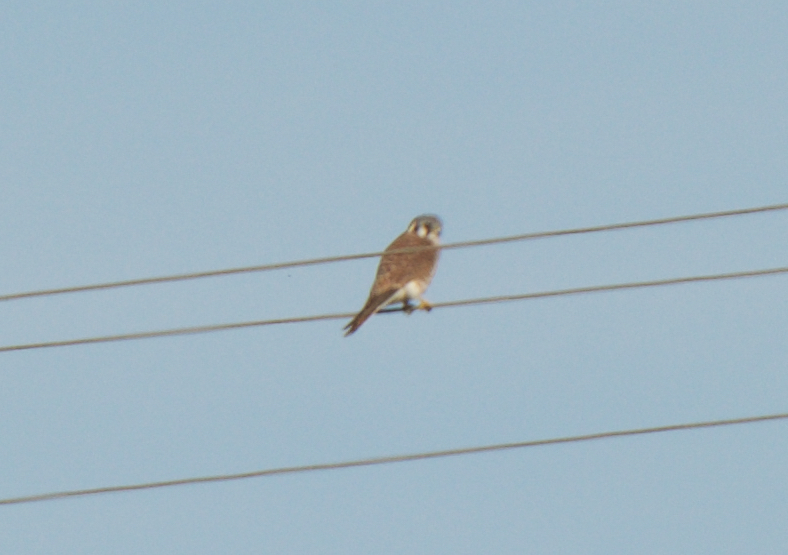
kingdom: Animalia
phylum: Chordata
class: Aves
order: Falconiformes
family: Falconidae
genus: Falco
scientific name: Falco sparverius
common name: American kestrel
